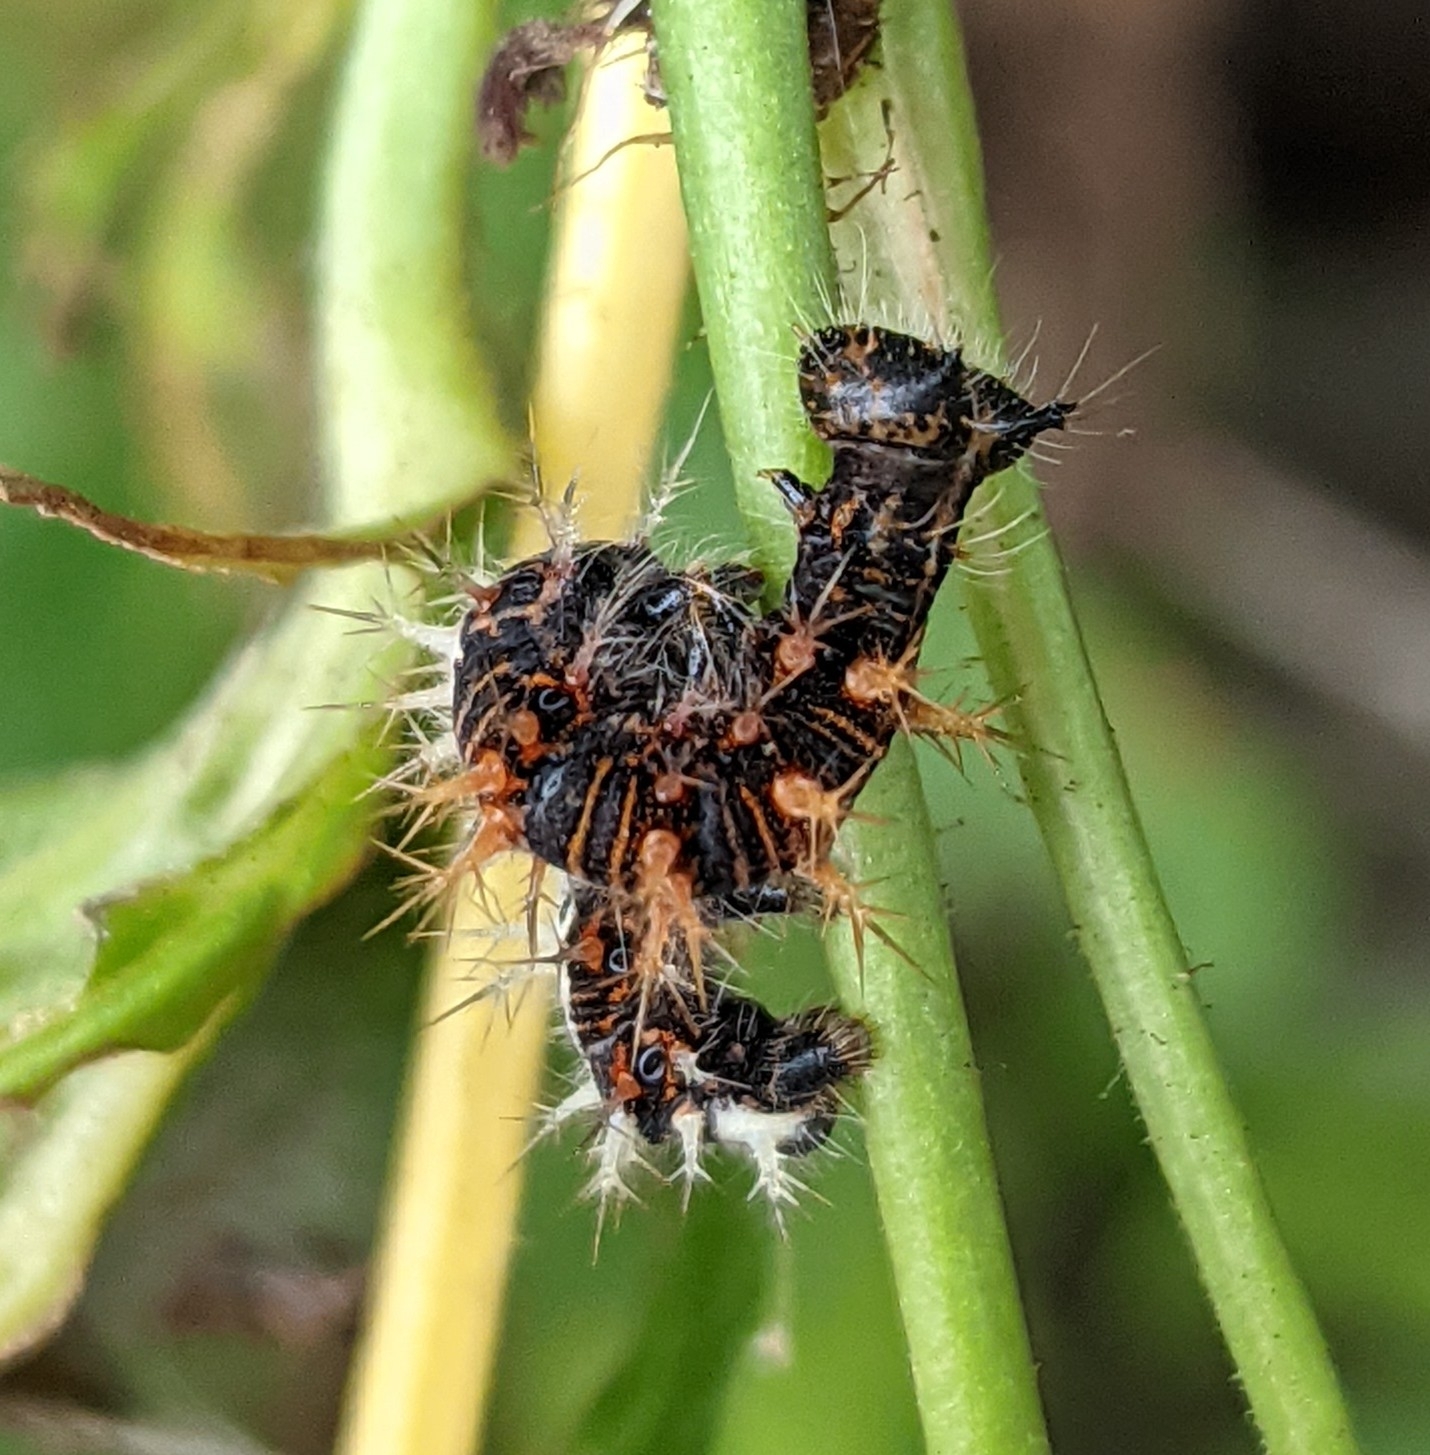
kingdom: Animalia
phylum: Arthropoda
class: Insecta
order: Lepidoptera
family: Nymphalidae
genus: Polygonia
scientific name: Polygonia c-album
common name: Comma
